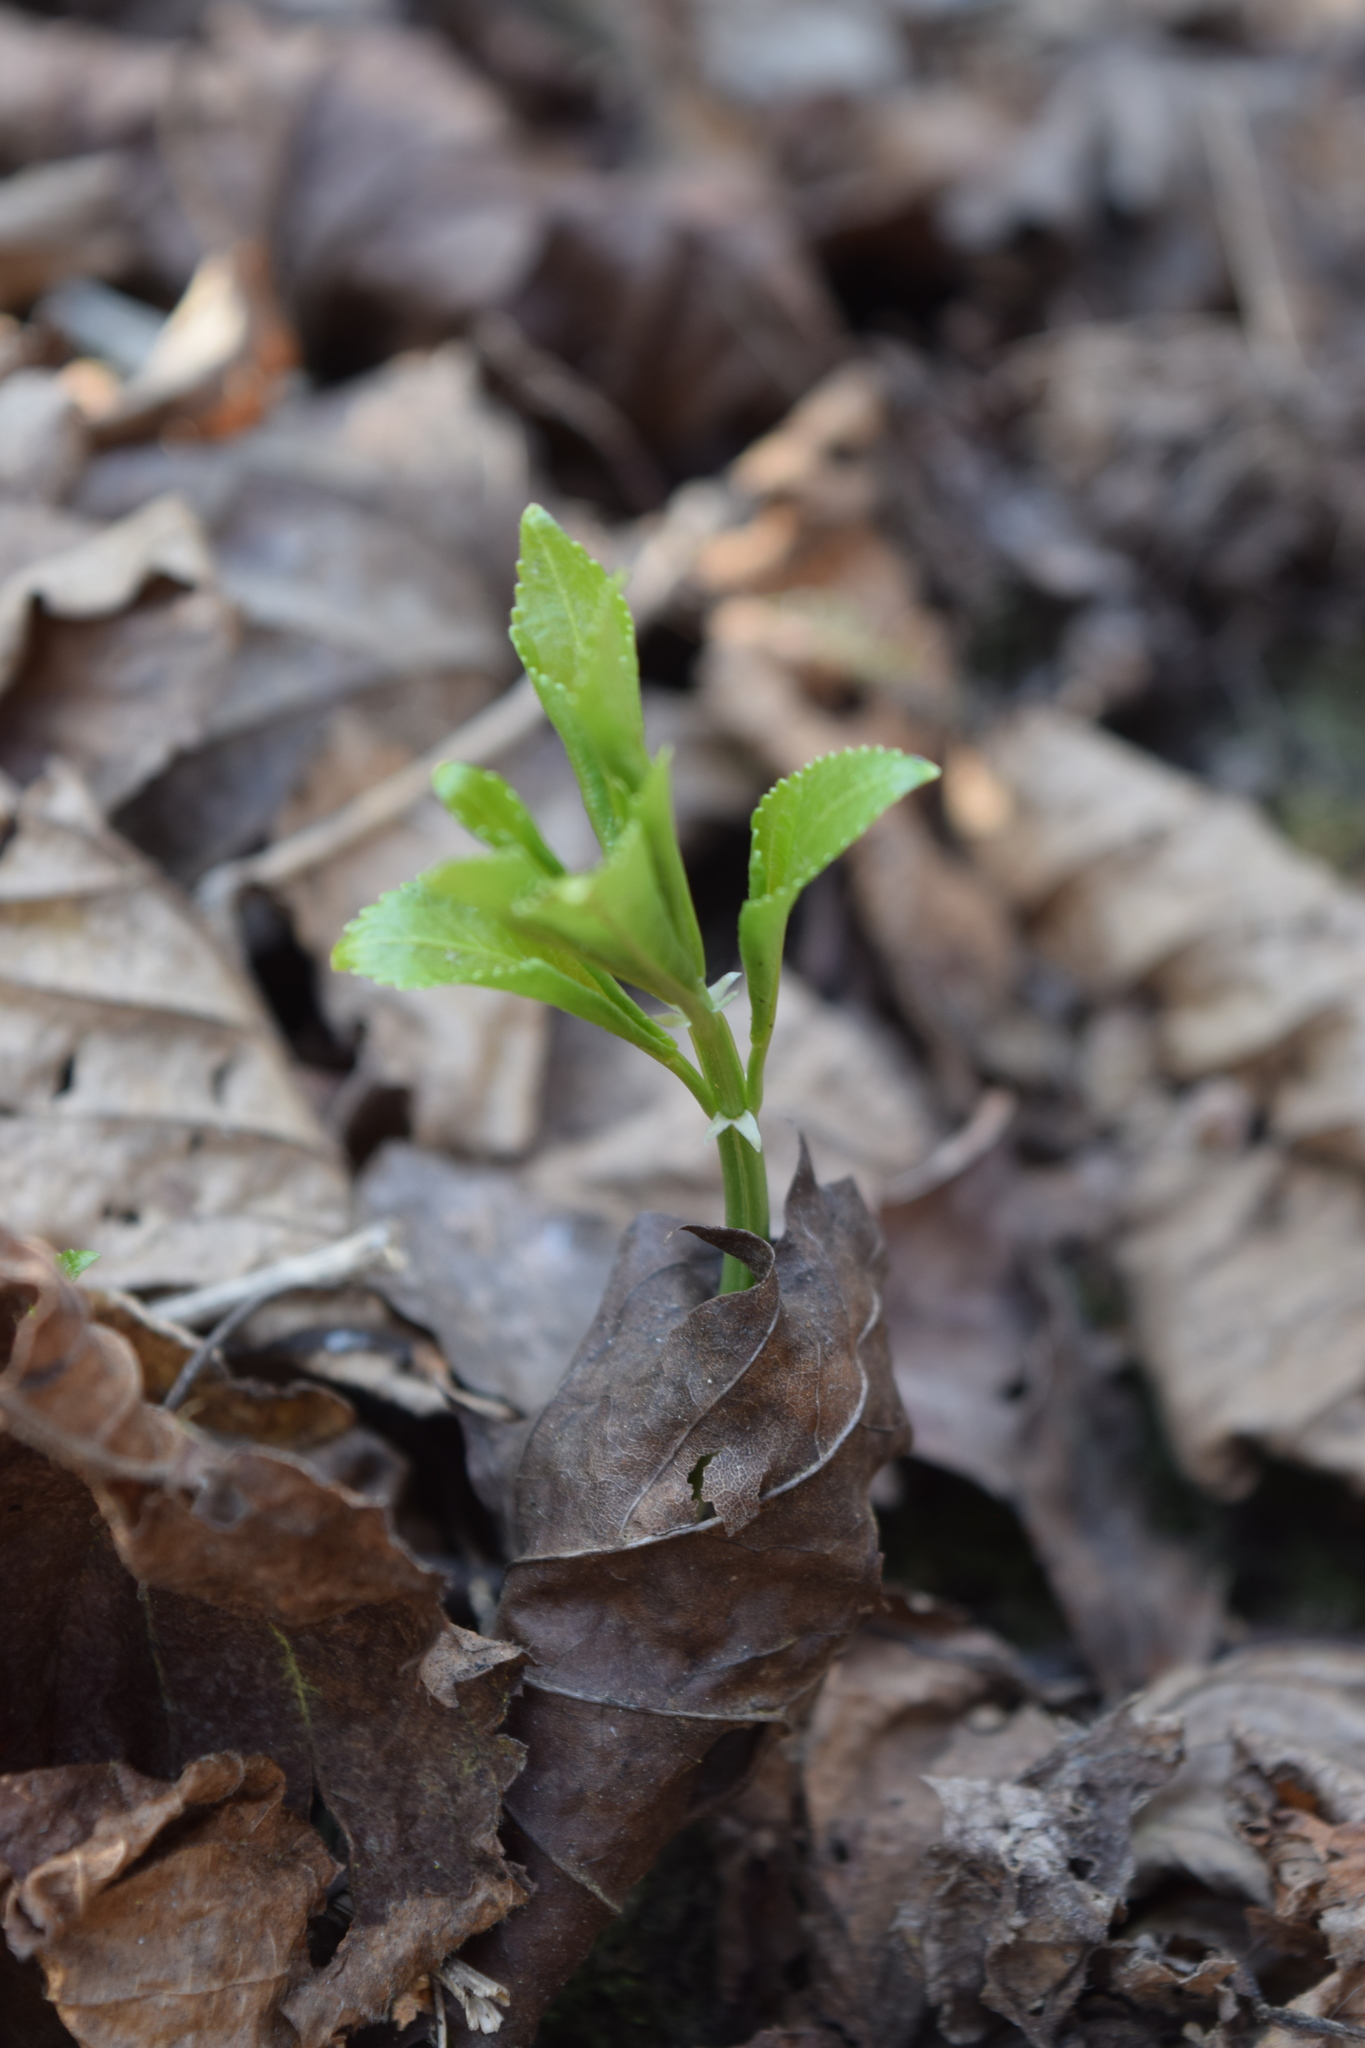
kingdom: Plantae
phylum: Tracheophyta
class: Magnoliopsida
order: Malpighiales
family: Euphorbiaceae
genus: Mercurialis
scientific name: Mercurialis perennis
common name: Dog mercury
